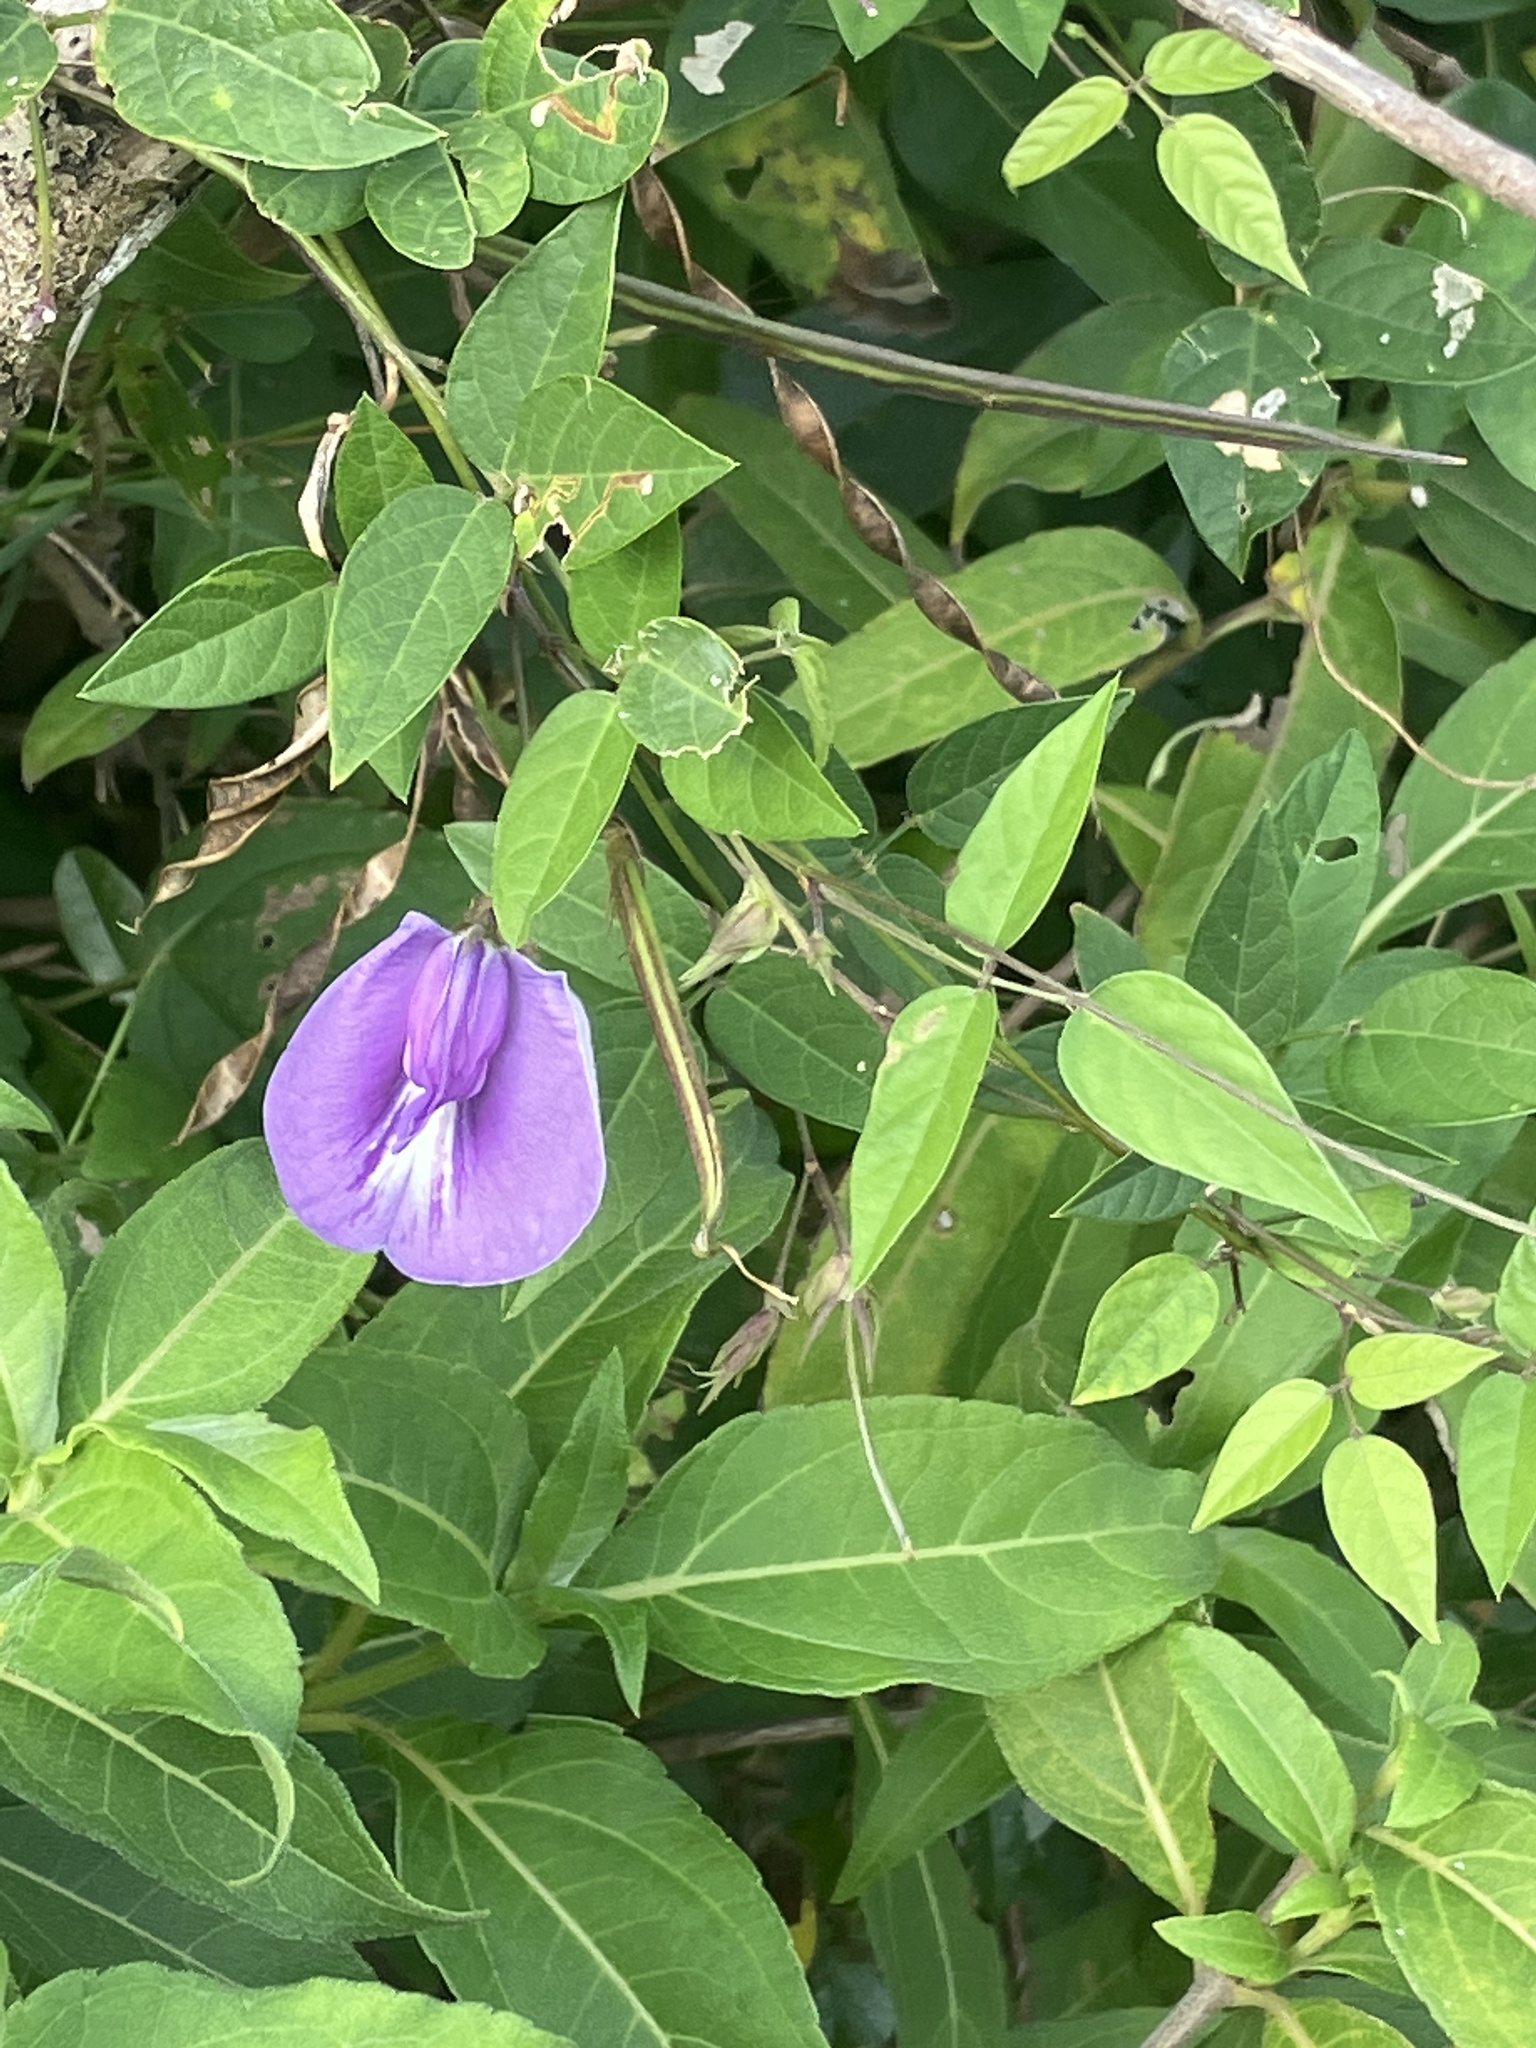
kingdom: Plantae
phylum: Tracheophyta
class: Magnoliopsida
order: Fabales
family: Fabaceae
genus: Centrosema
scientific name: Centrosema virginianum
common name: Butterfly-pea
